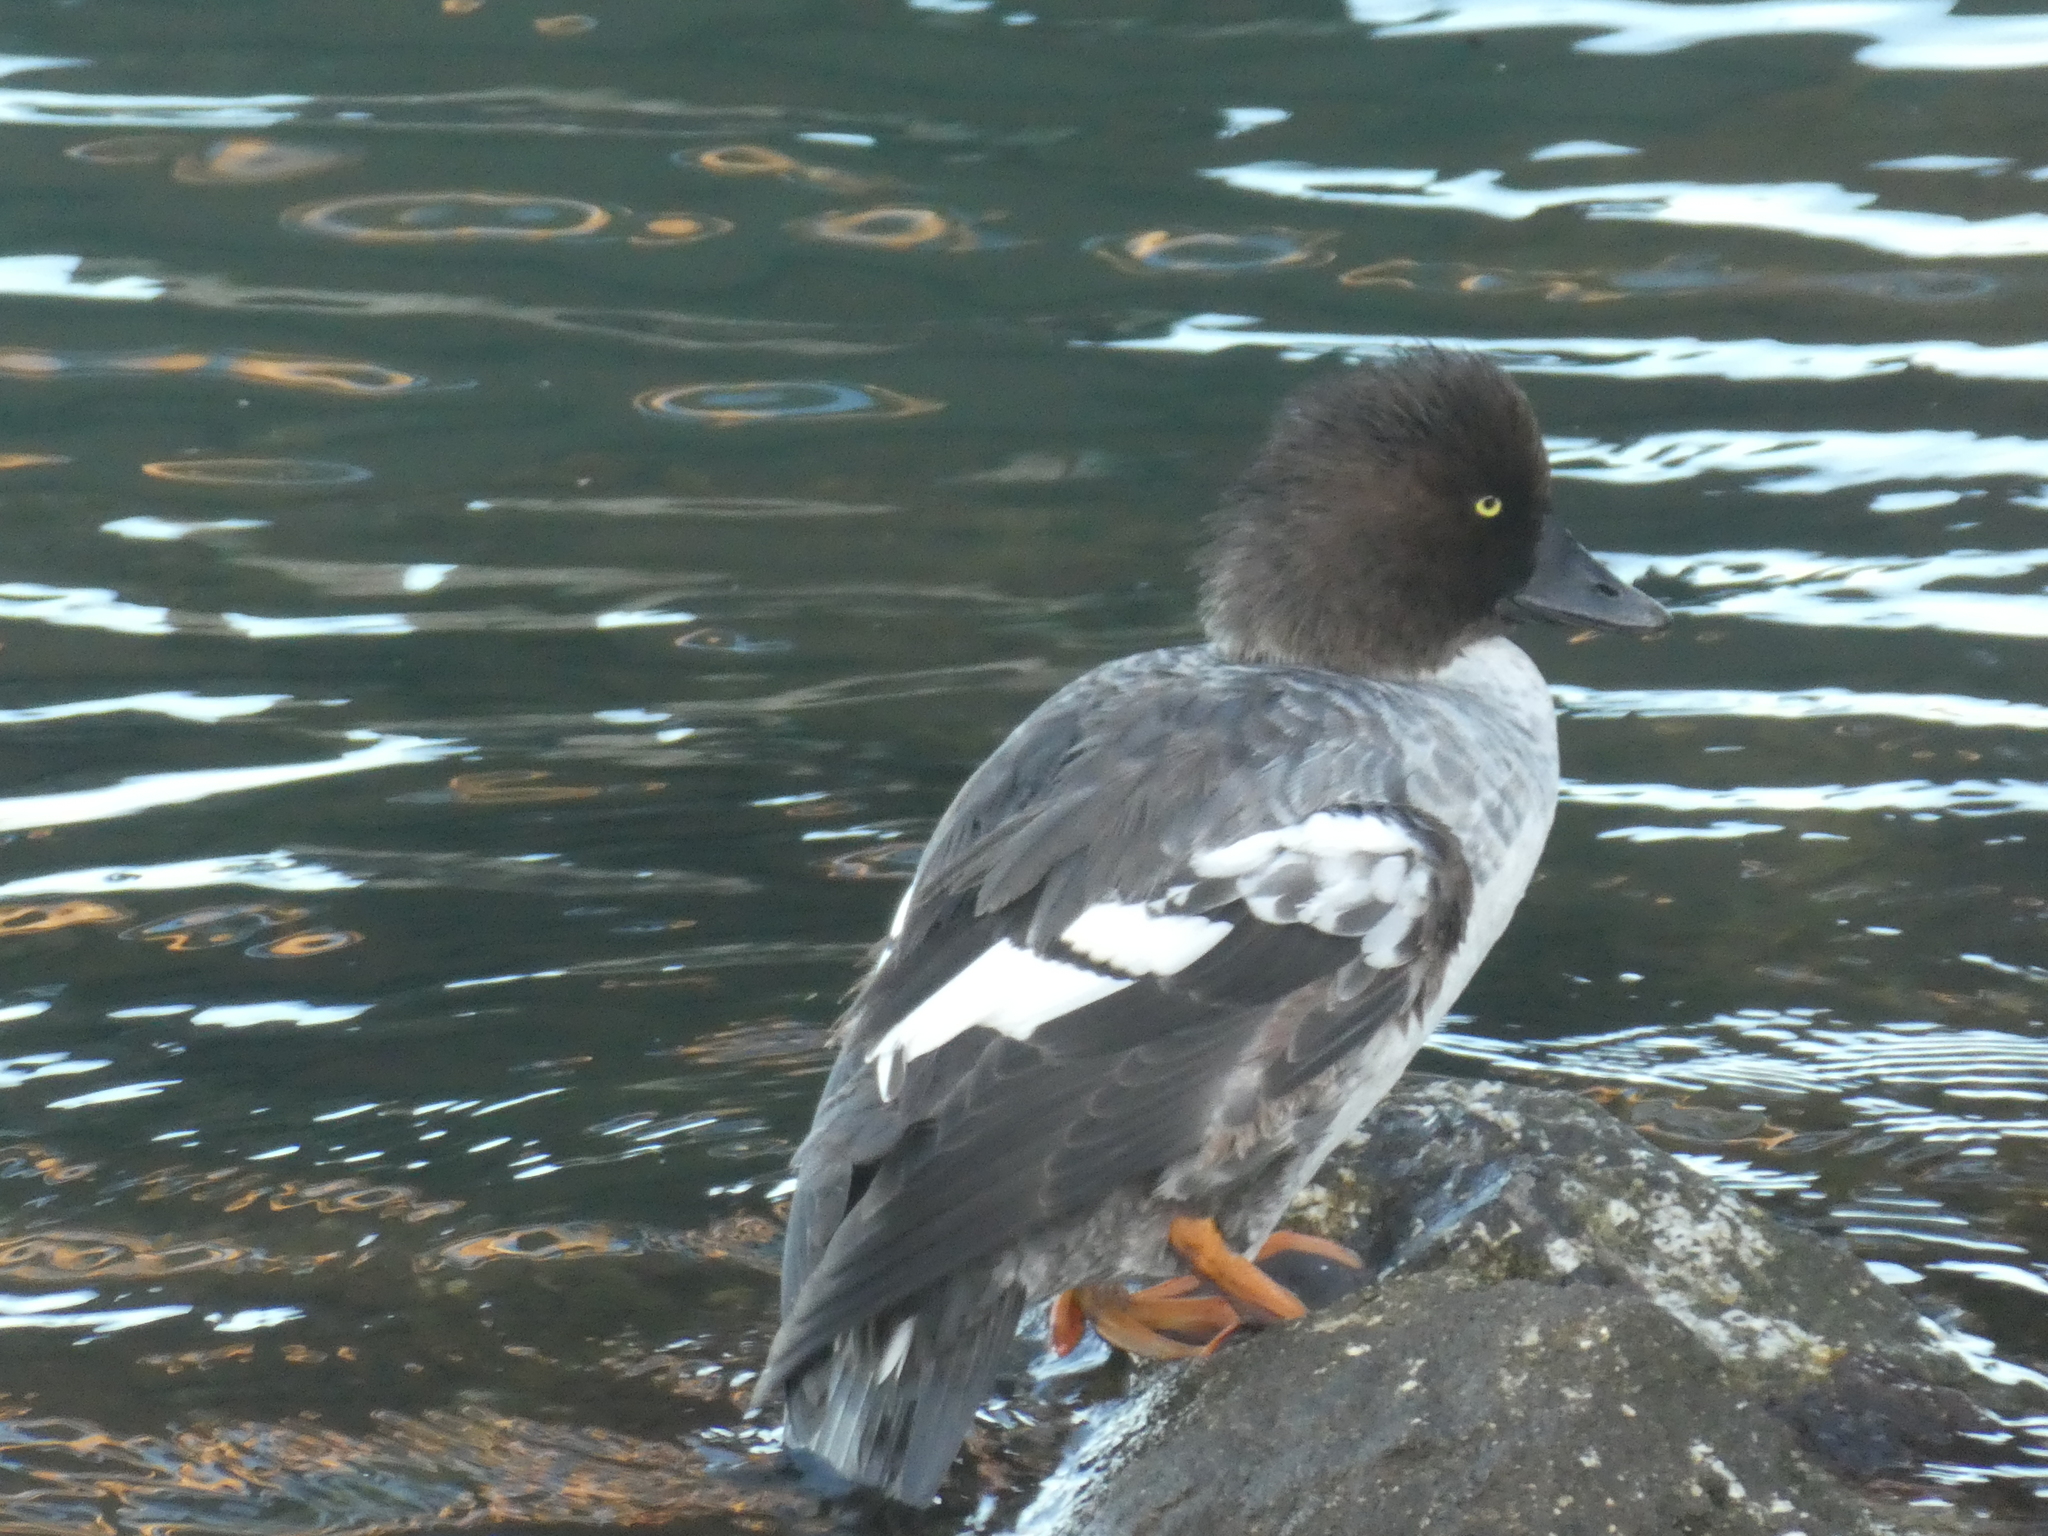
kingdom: Animalia
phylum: Chordata
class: Aves
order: Anseriformes
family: Anatidae
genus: Bucephala
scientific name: Bucephala islandica
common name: Barrow's goldeneye
